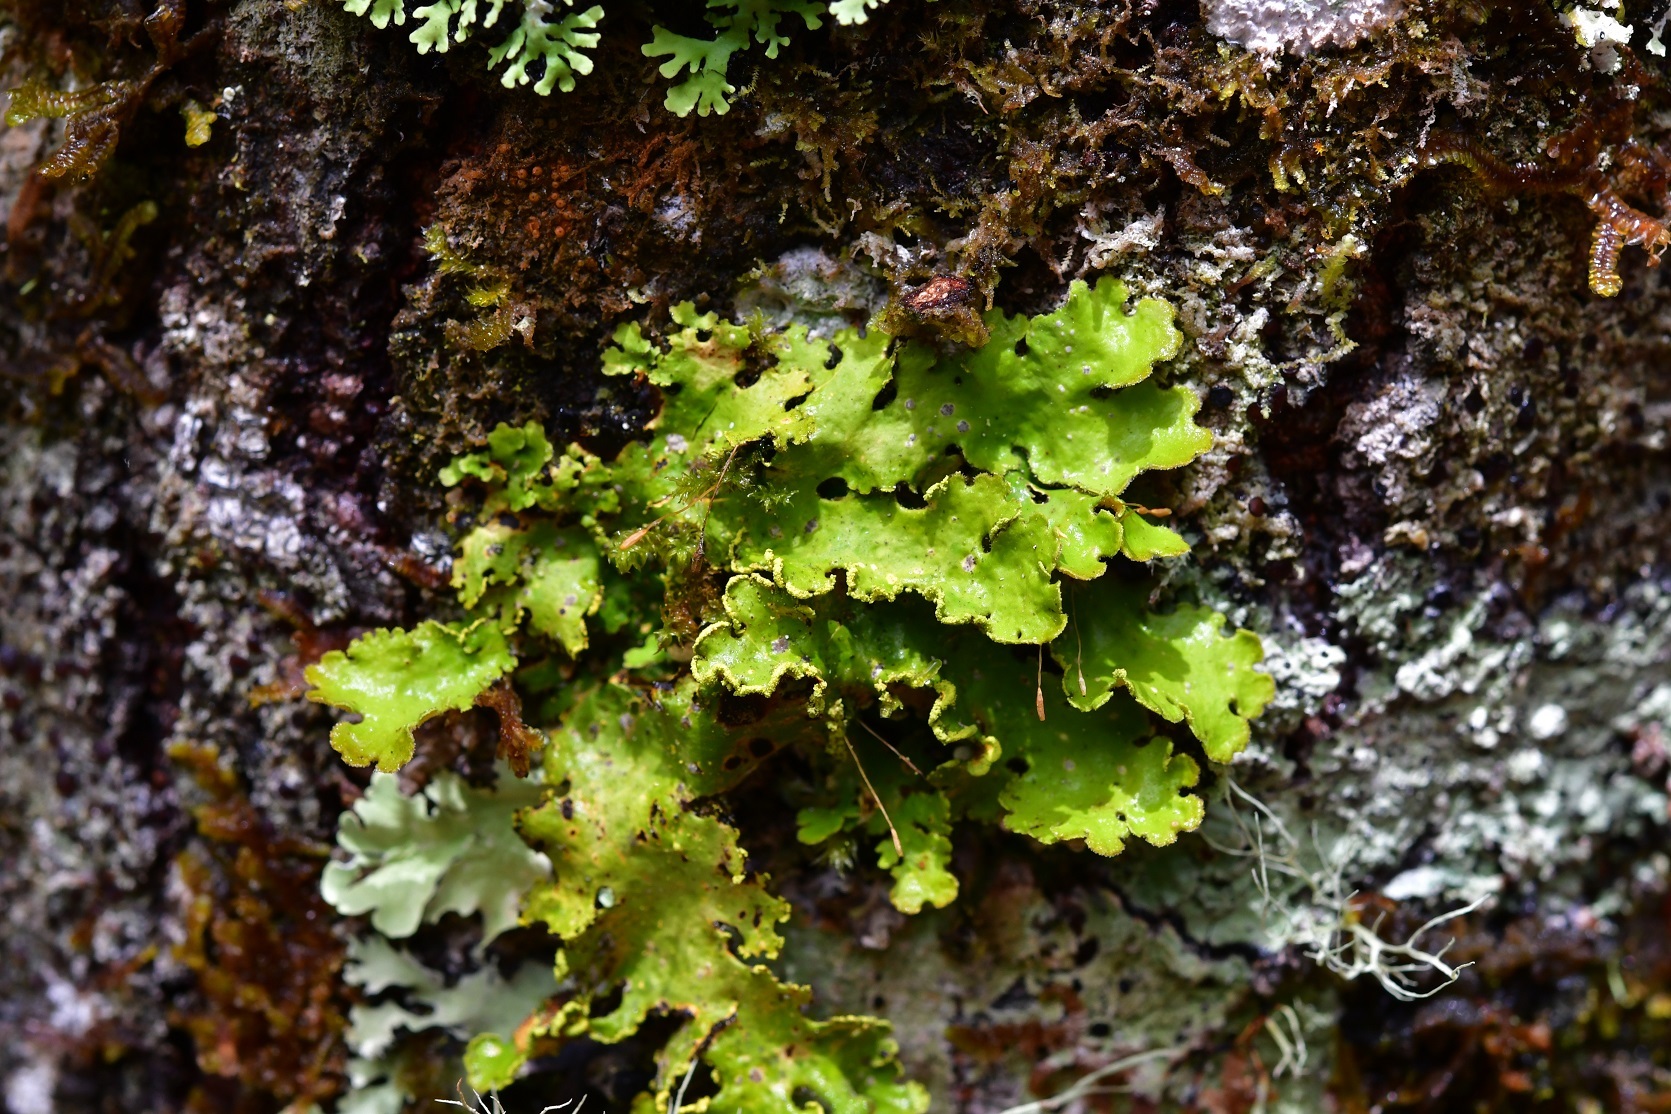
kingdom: Fungi
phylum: Ascomycota
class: Lecanoromycetes
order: Peltigerales
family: Lobariaceae
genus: Pseudocyphellaria
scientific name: Pseudocyphellaria aurata
